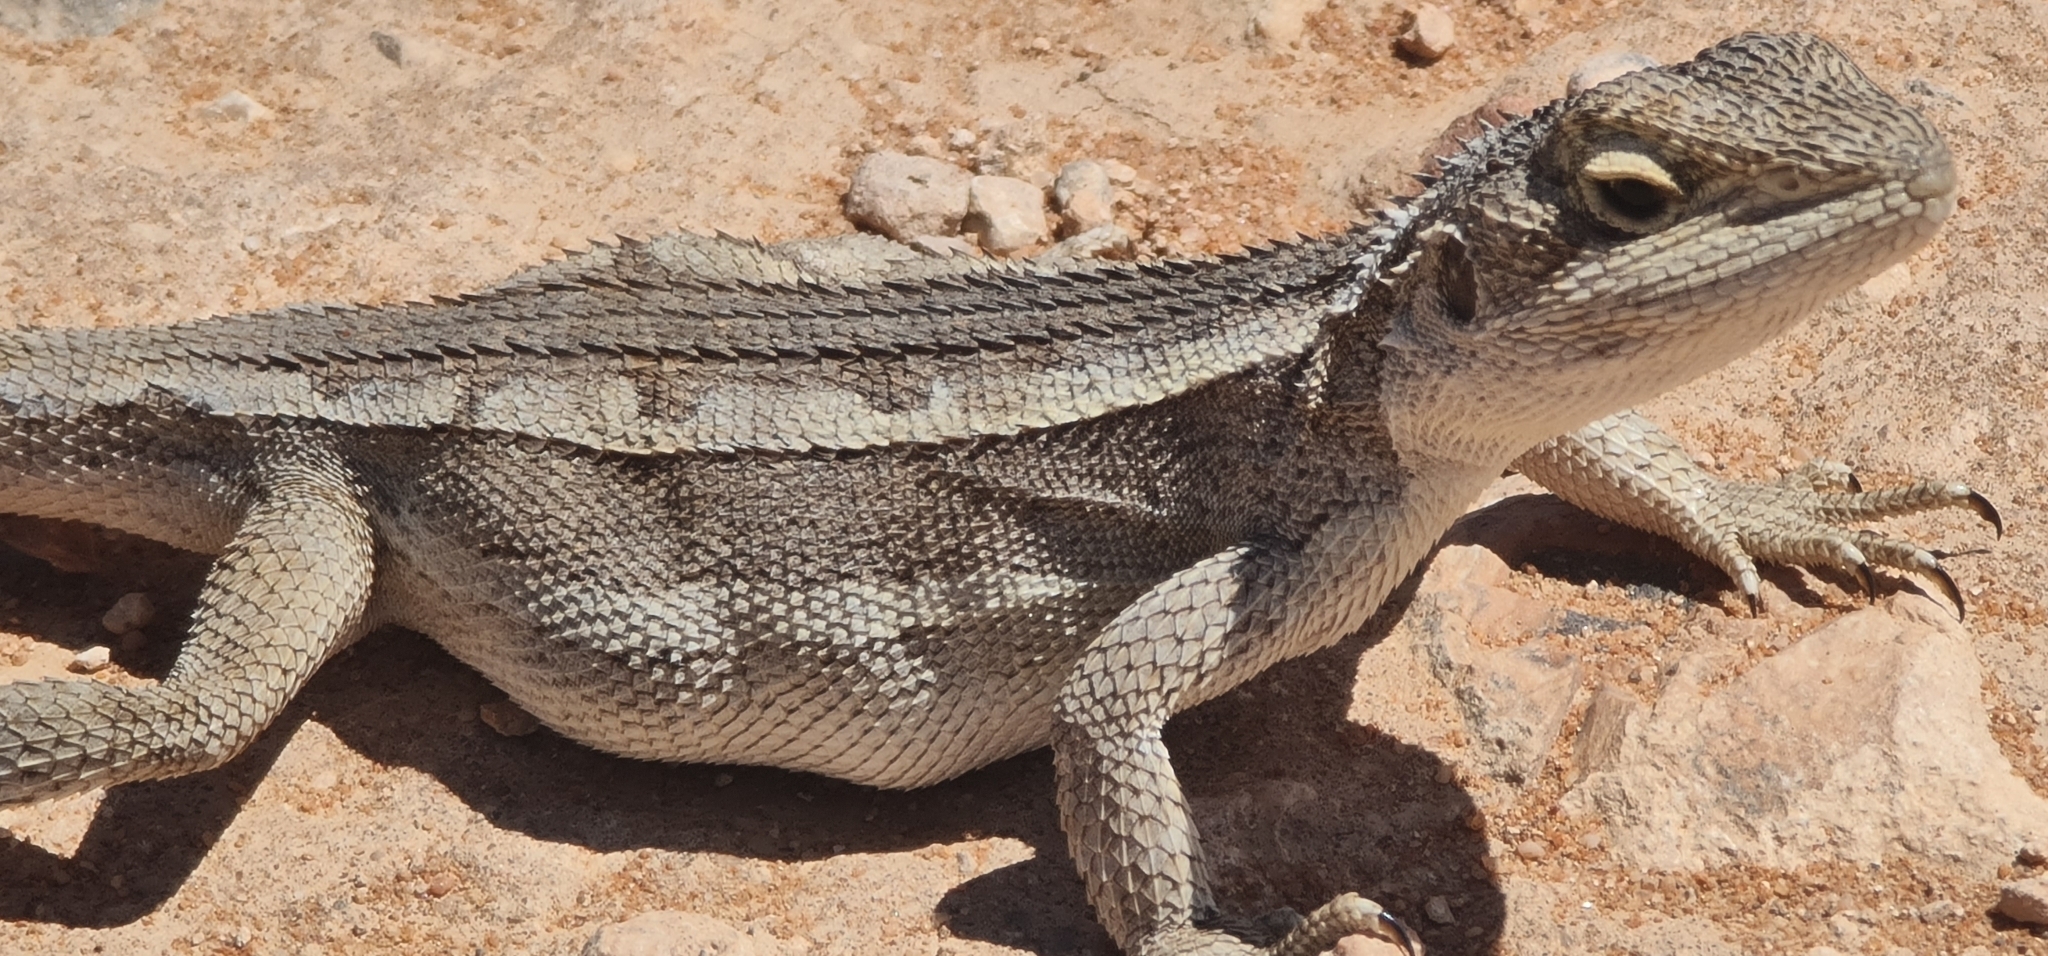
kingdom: Animalia
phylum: Chordata
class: Squamata
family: Agamidae
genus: Diporiphora
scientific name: Diporiphora nobbi
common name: Nobbi
